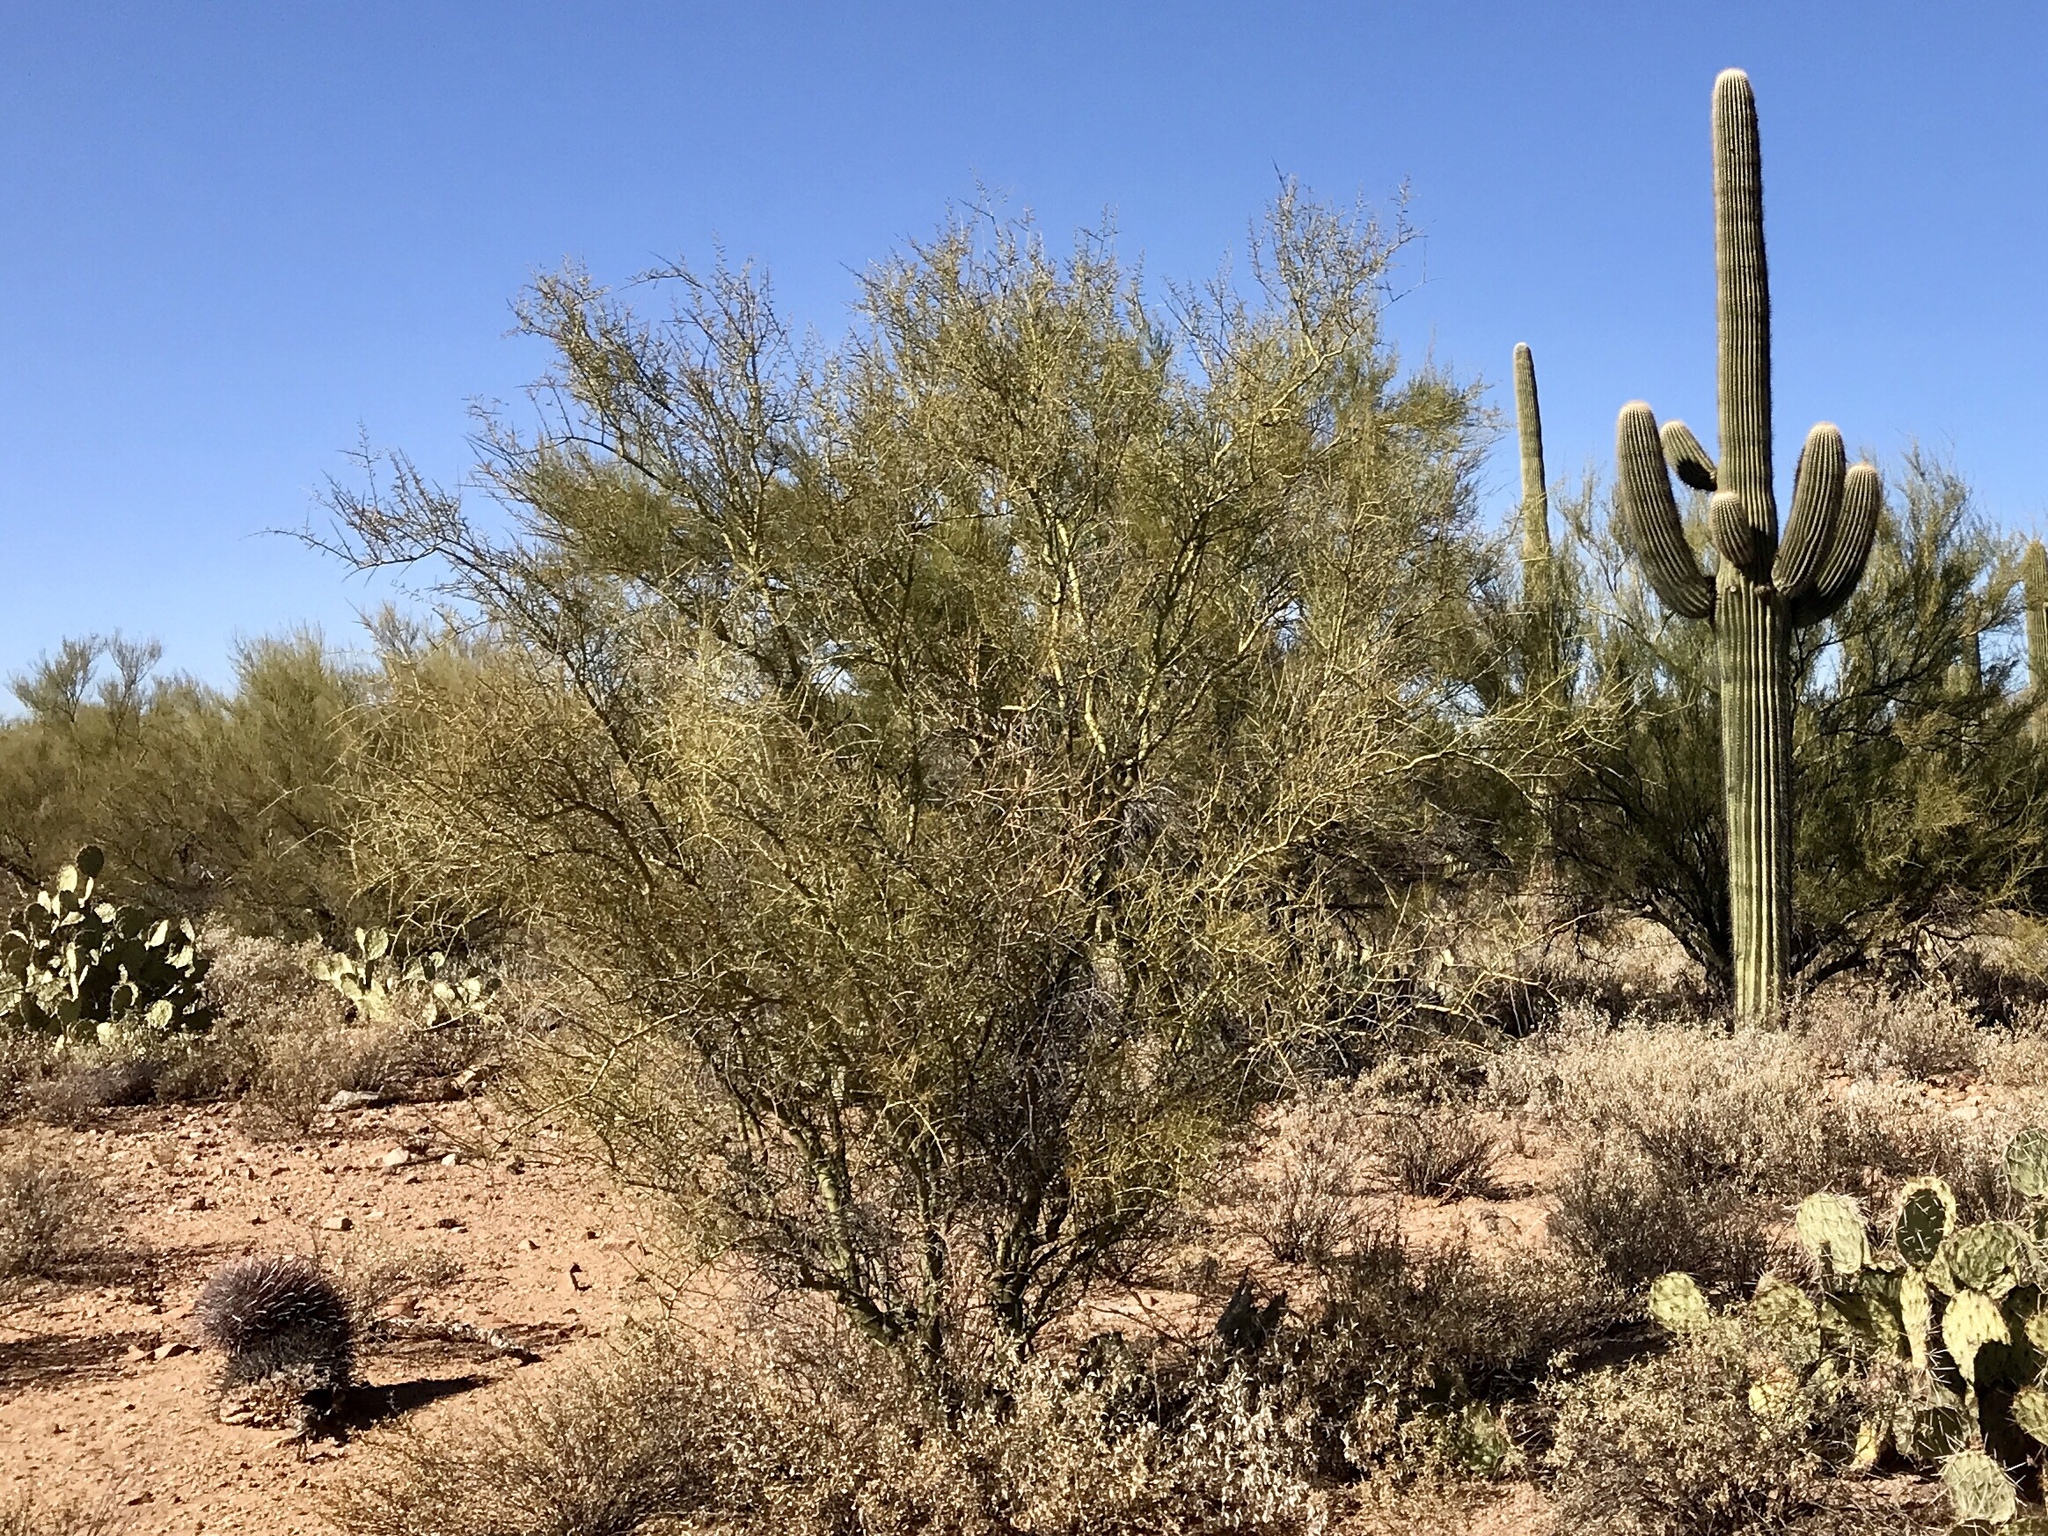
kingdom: Plantae
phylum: Tracheophyta
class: Magnoliopsida
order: Fabales
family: Fabaceae
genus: Parkinsonia
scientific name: Parkinsonia microphylla
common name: Yellow paloverde
